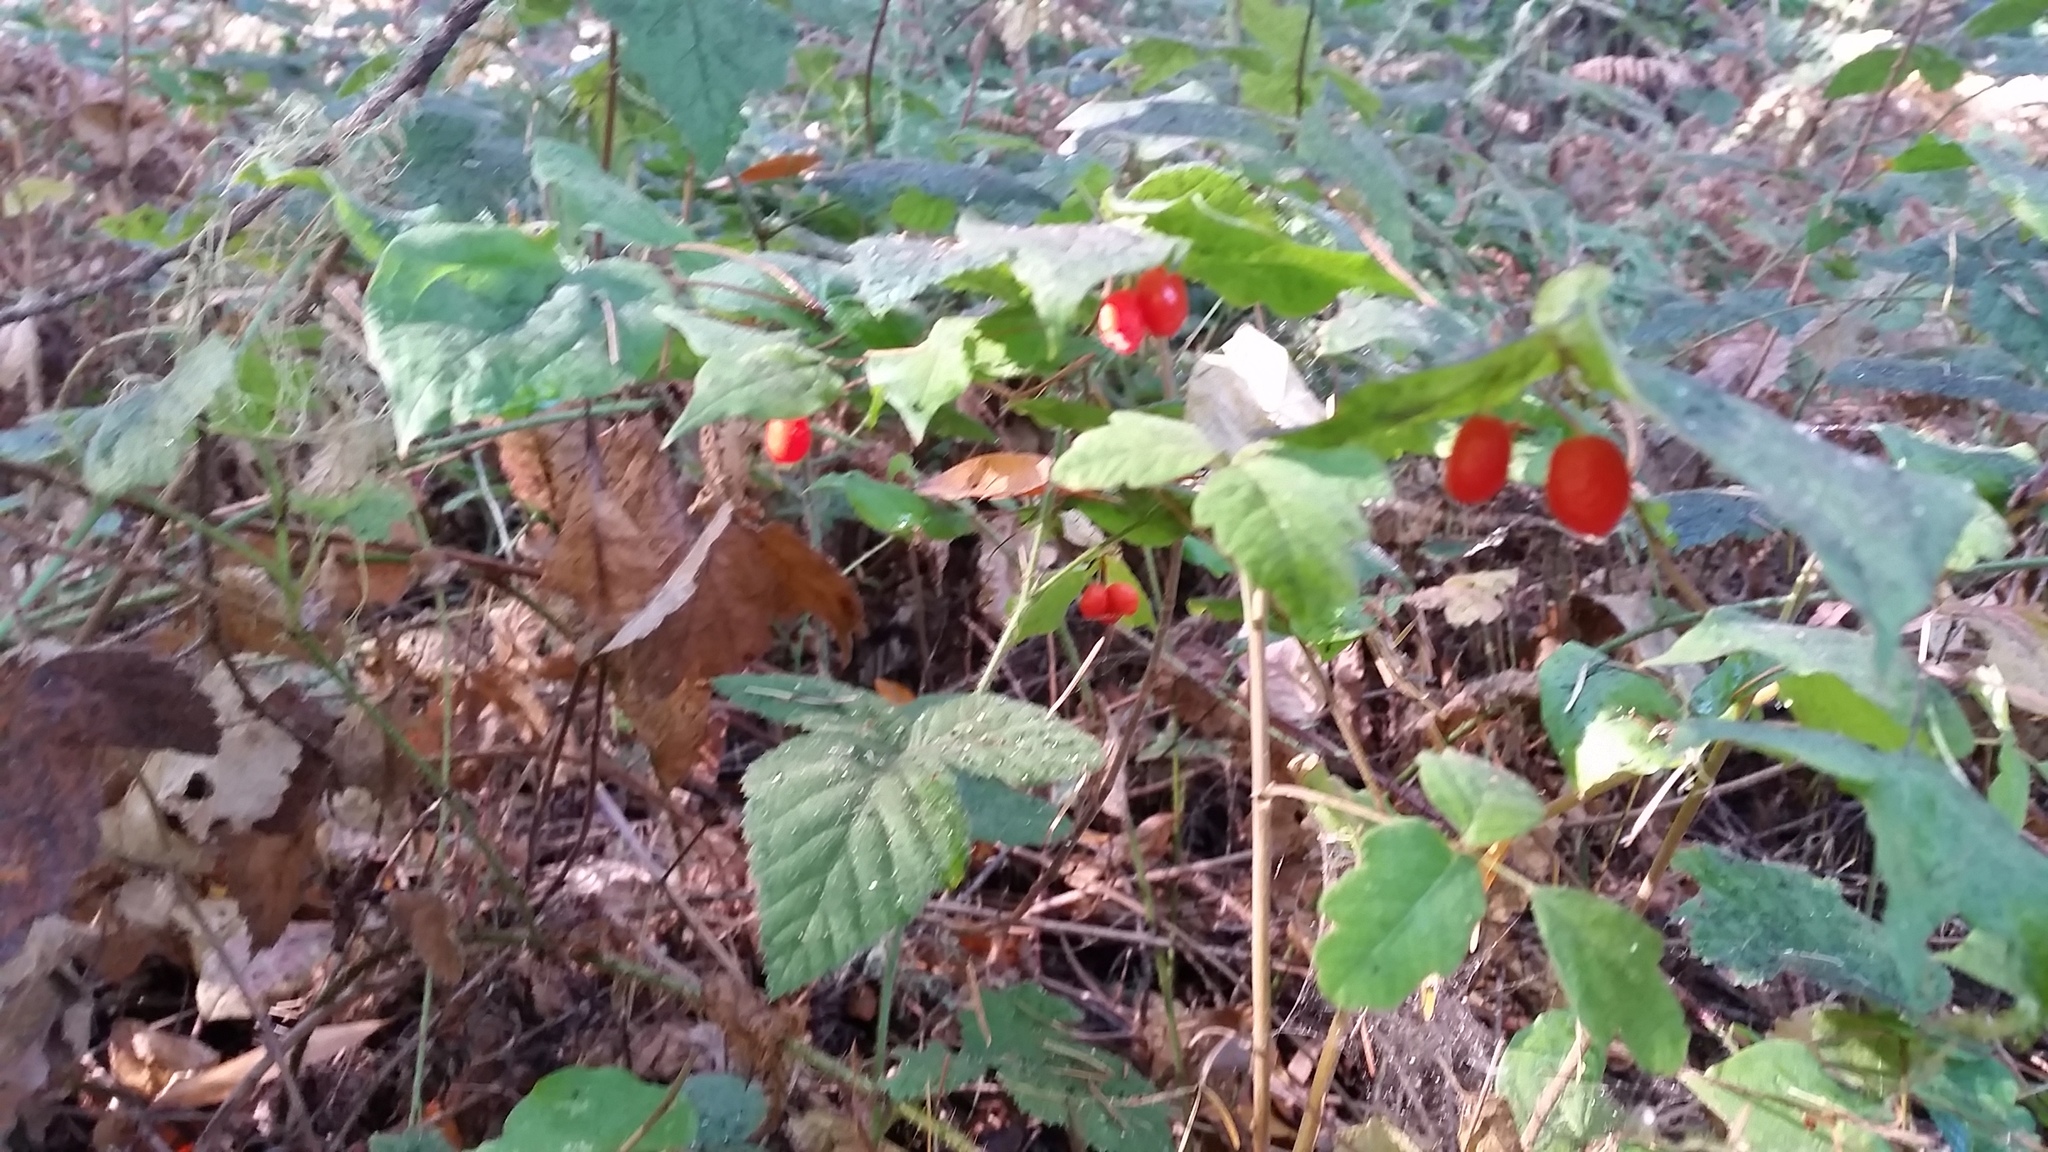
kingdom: Plantae
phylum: Tracheophyta
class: Liliopsida
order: Liliales
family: Liliaceae
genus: Prosartes
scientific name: Prosartes hookeri
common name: Fairy-bells
